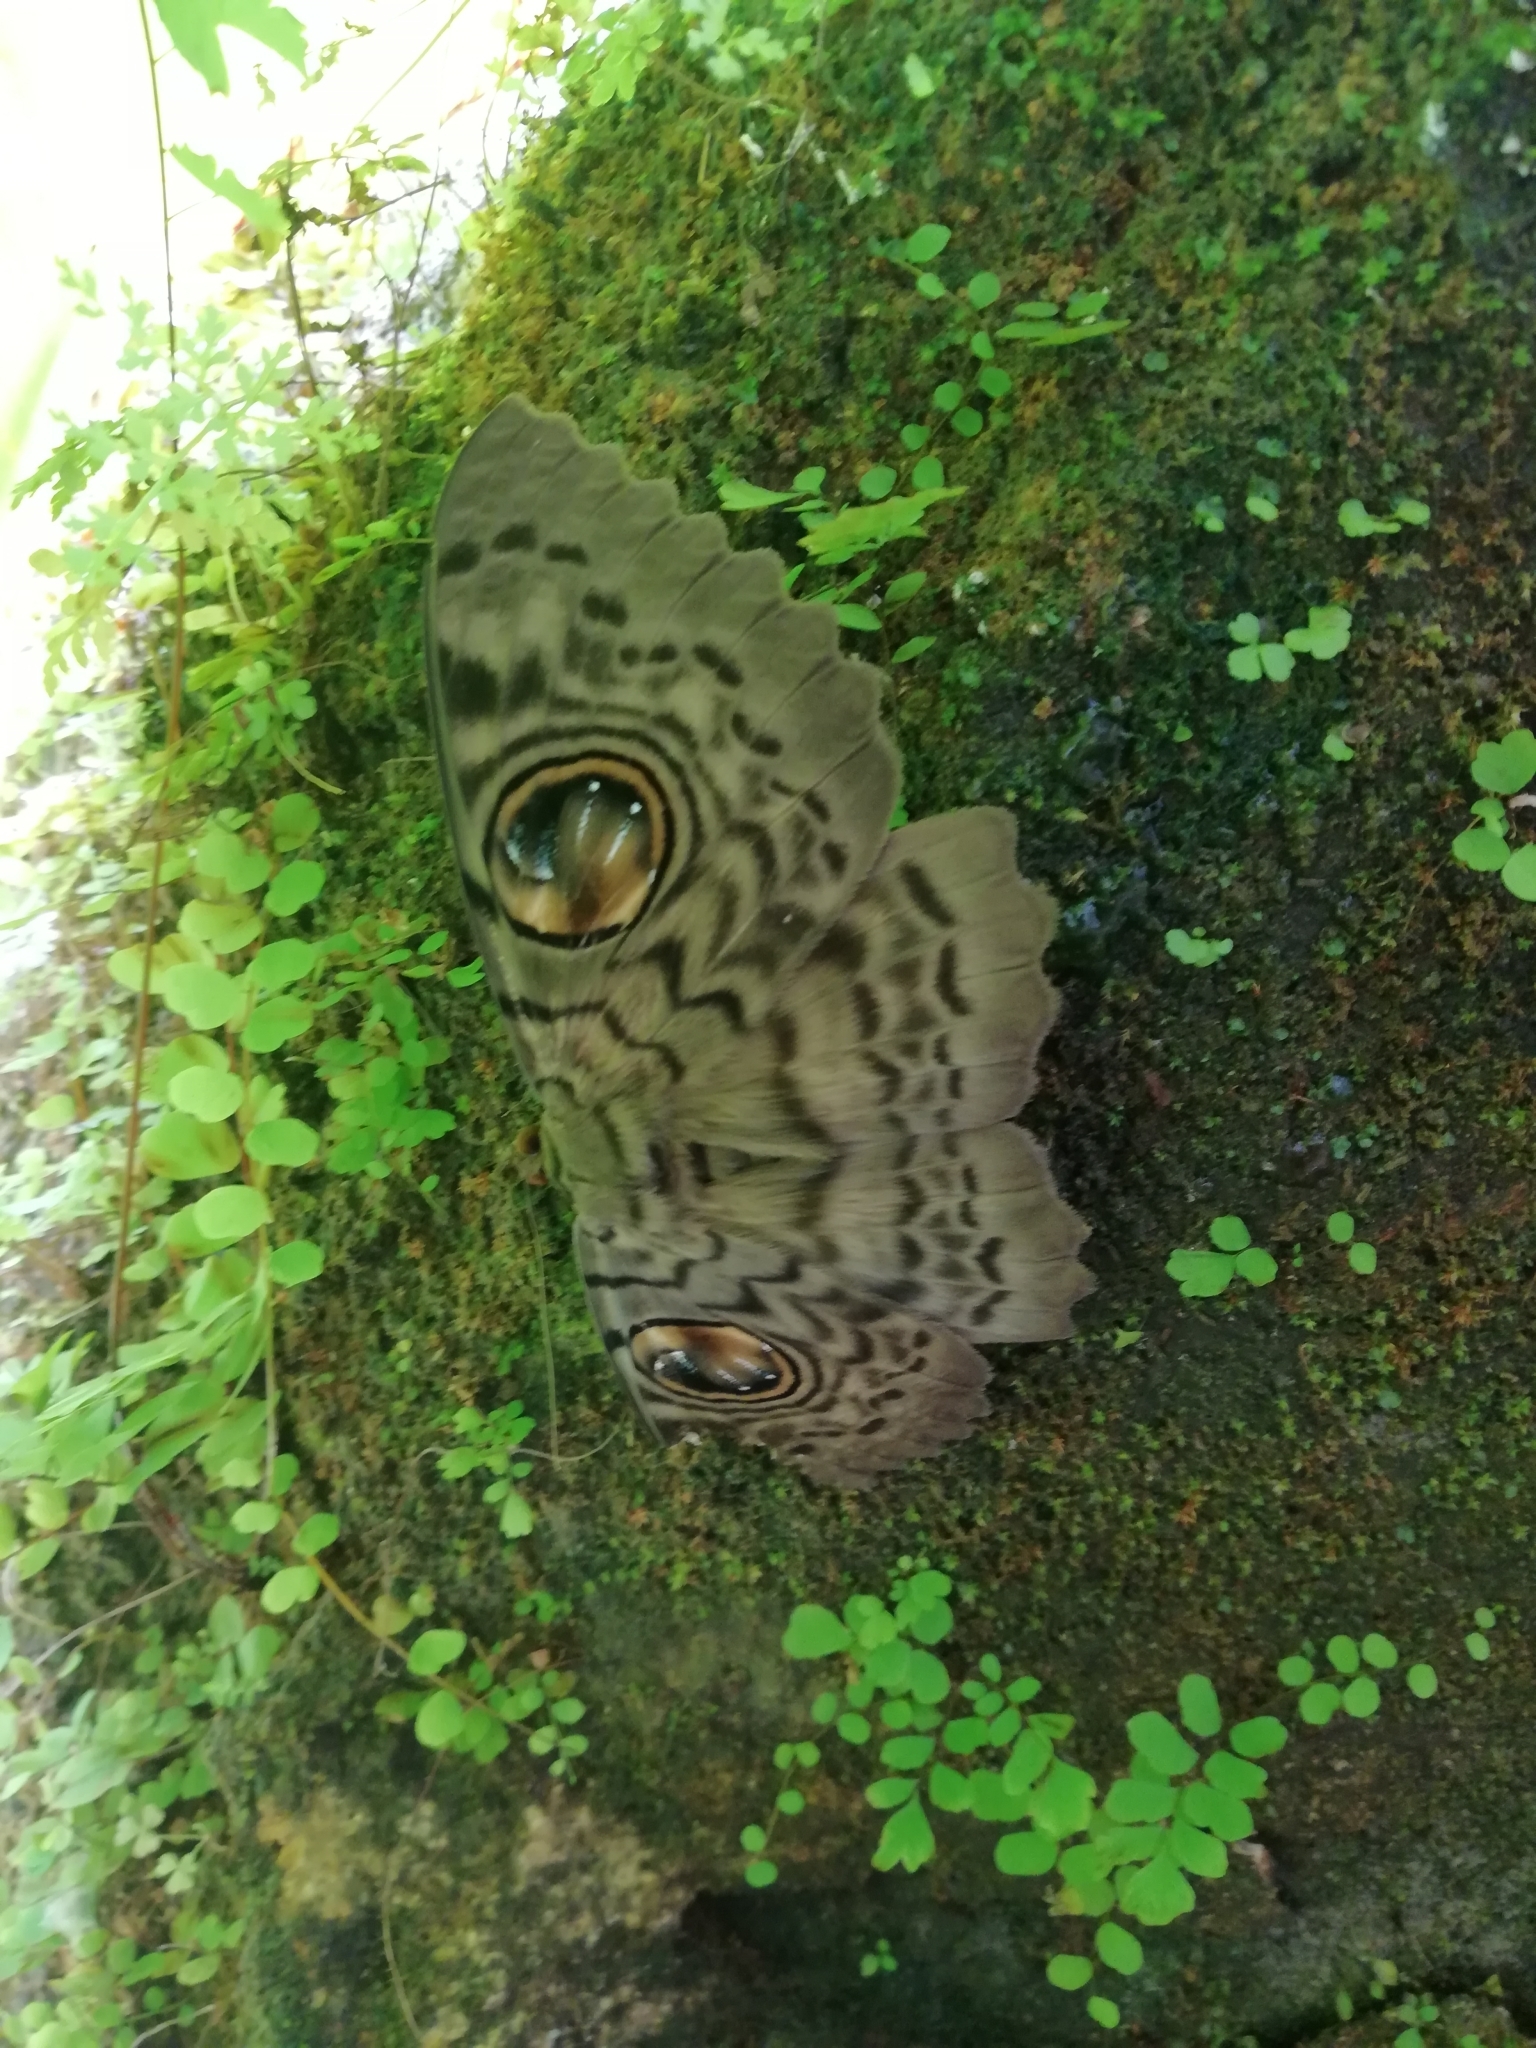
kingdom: Animalia
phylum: Arthropoda
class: Insecta
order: Lepidoptera
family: Erebidae
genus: Erebus
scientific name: Erebus macrops
